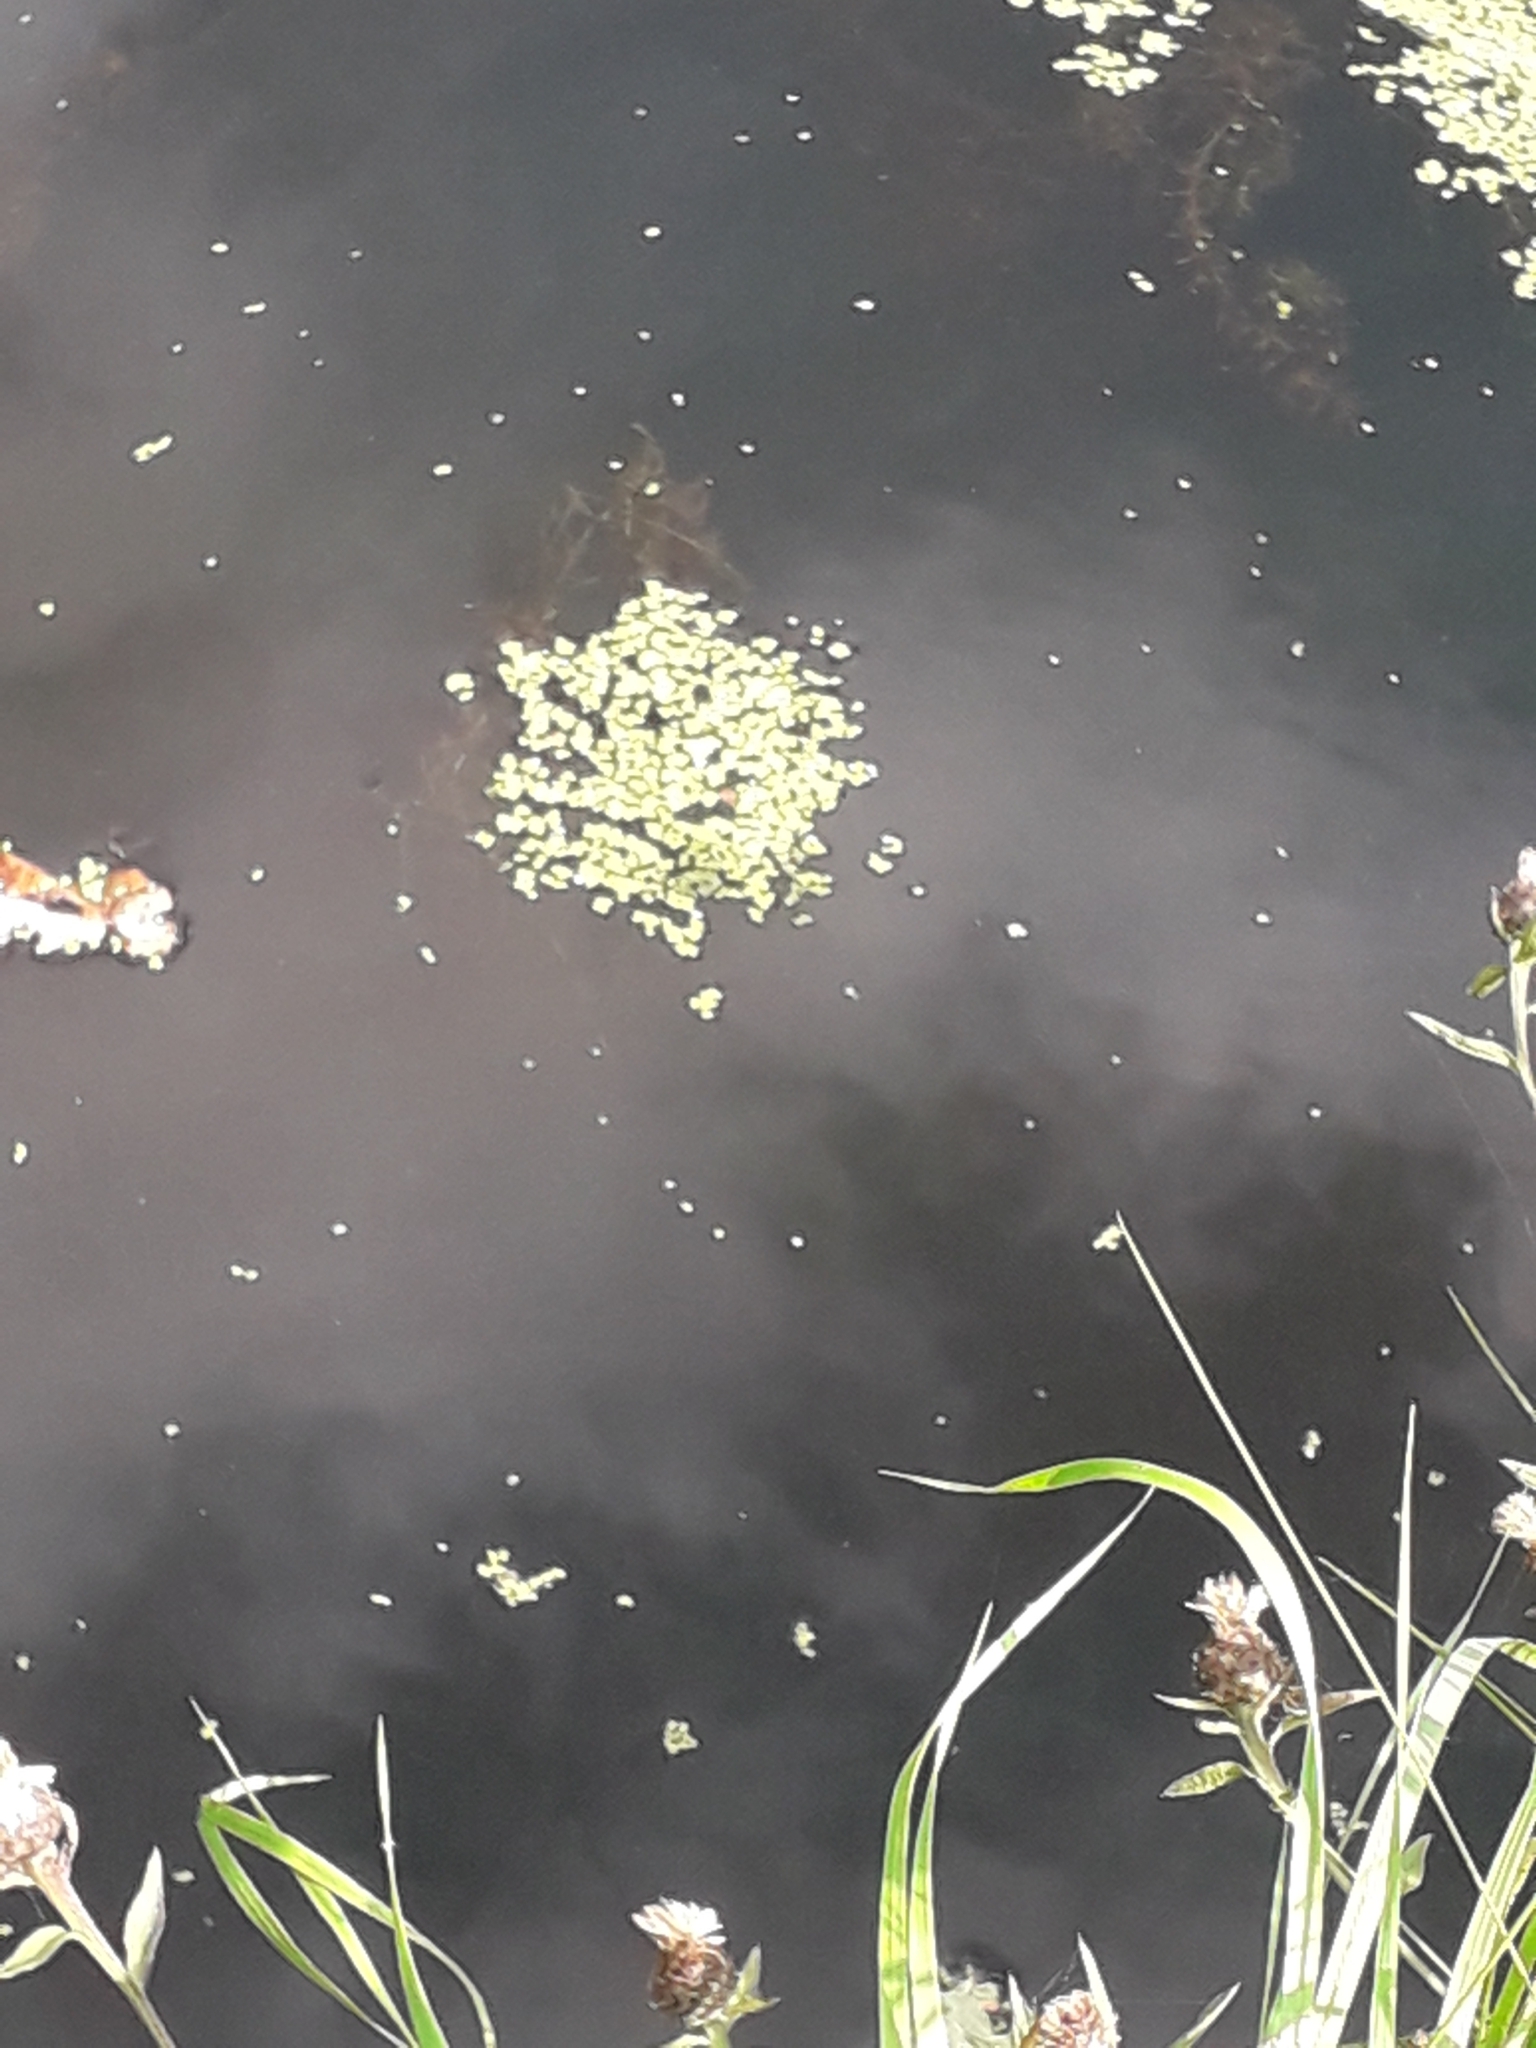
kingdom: Plantae
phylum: Tracheophyta
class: Liliopsida
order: Alismatales
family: Araceae
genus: Lemna
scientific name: Lemna minor
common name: Common duckweed
